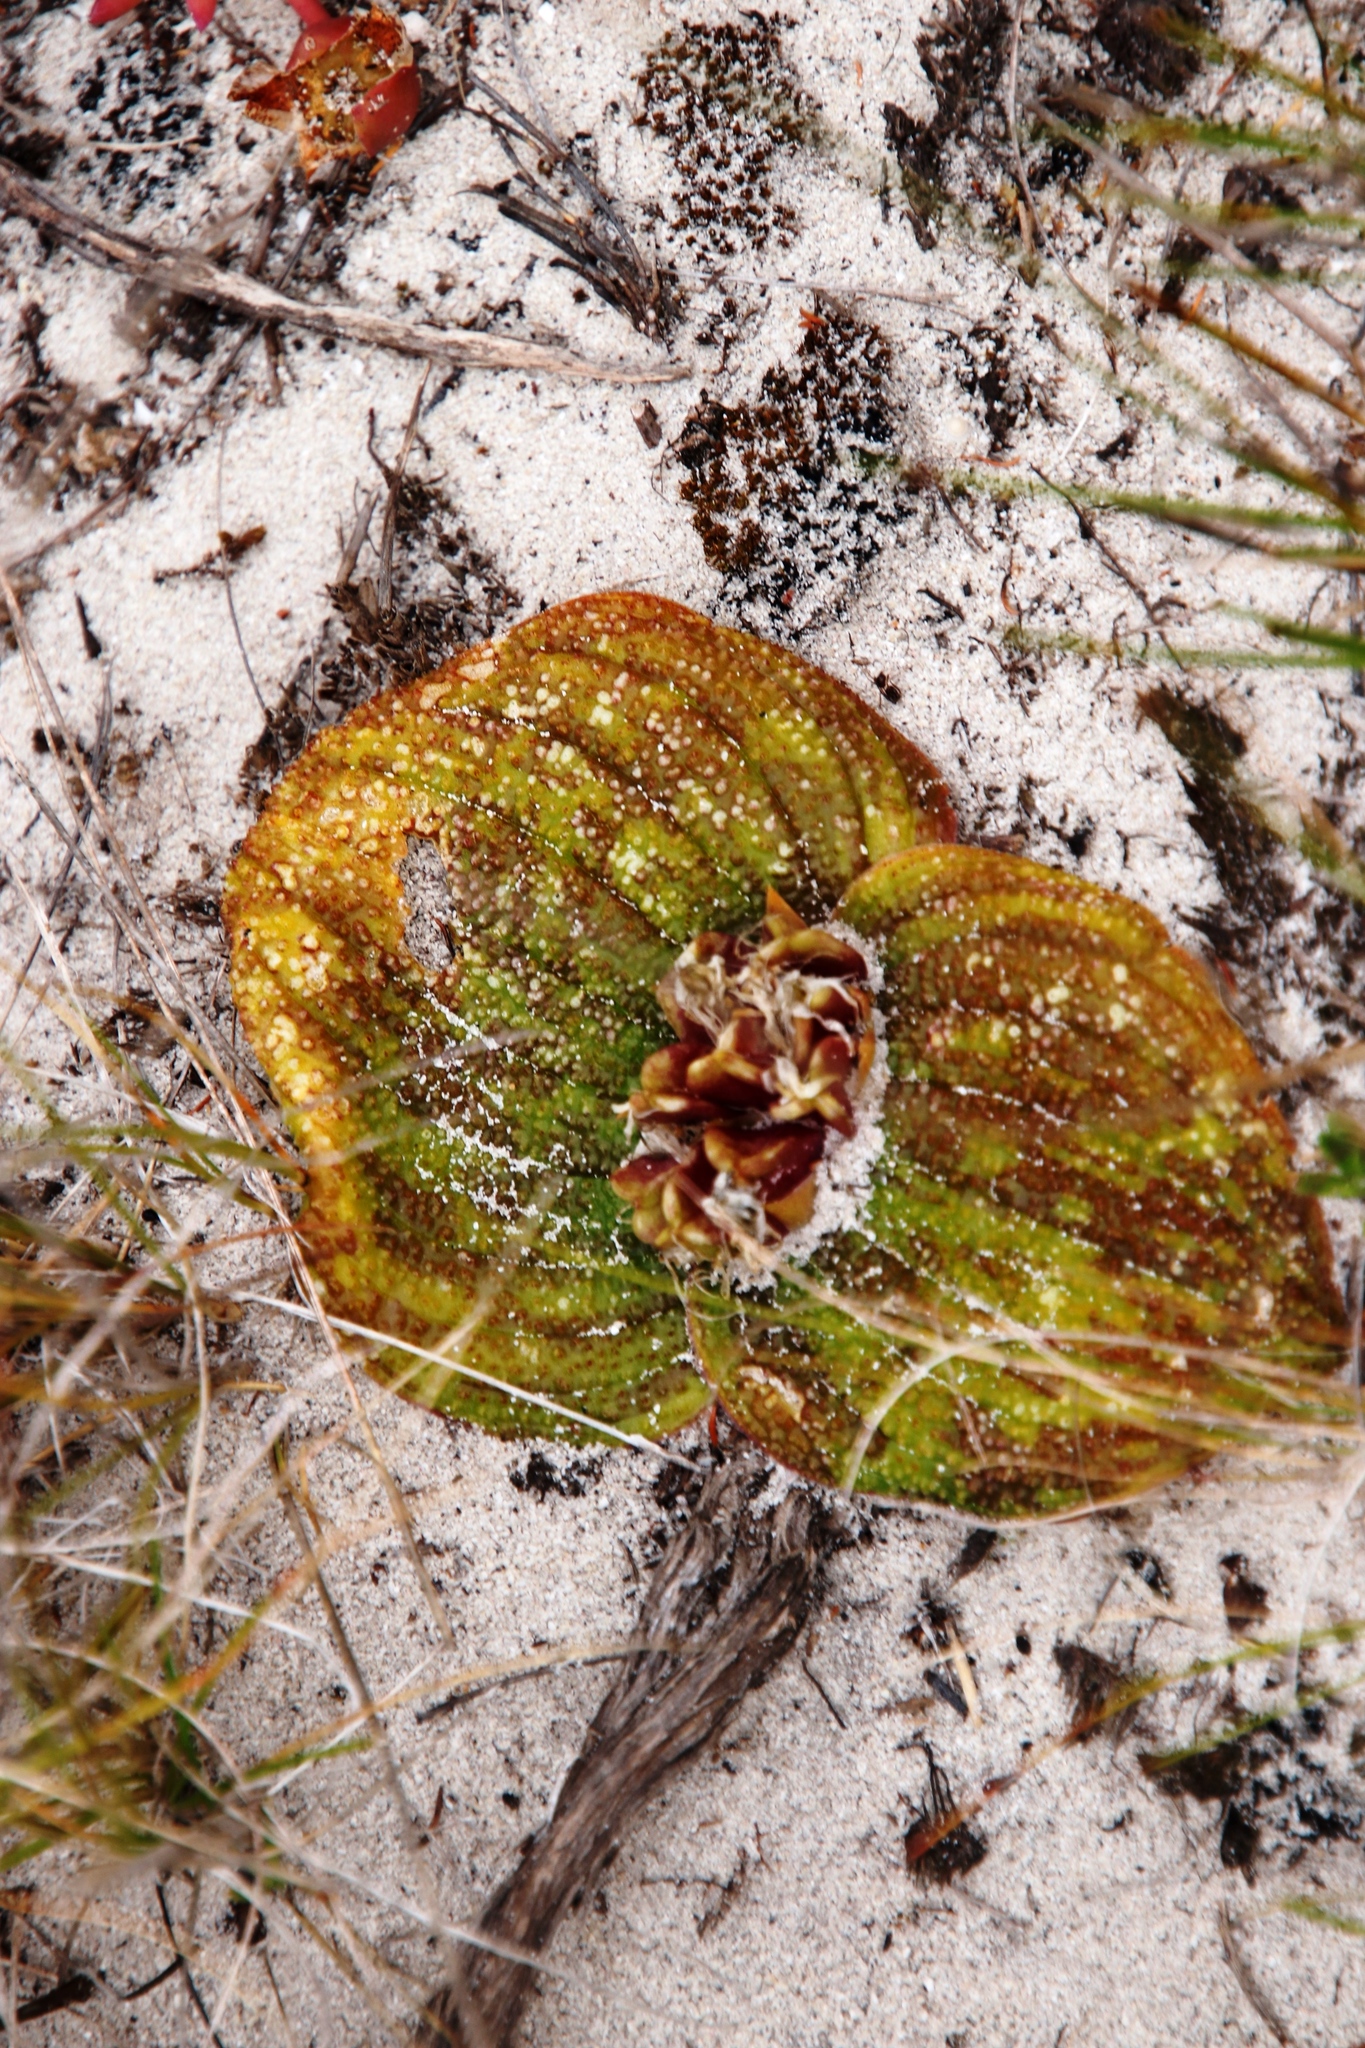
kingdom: Plantae
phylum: Tracheophyta
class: Liliopsida
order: Asparagales
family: Asparagaceae
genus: Massonia
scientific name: Massonia longipes
